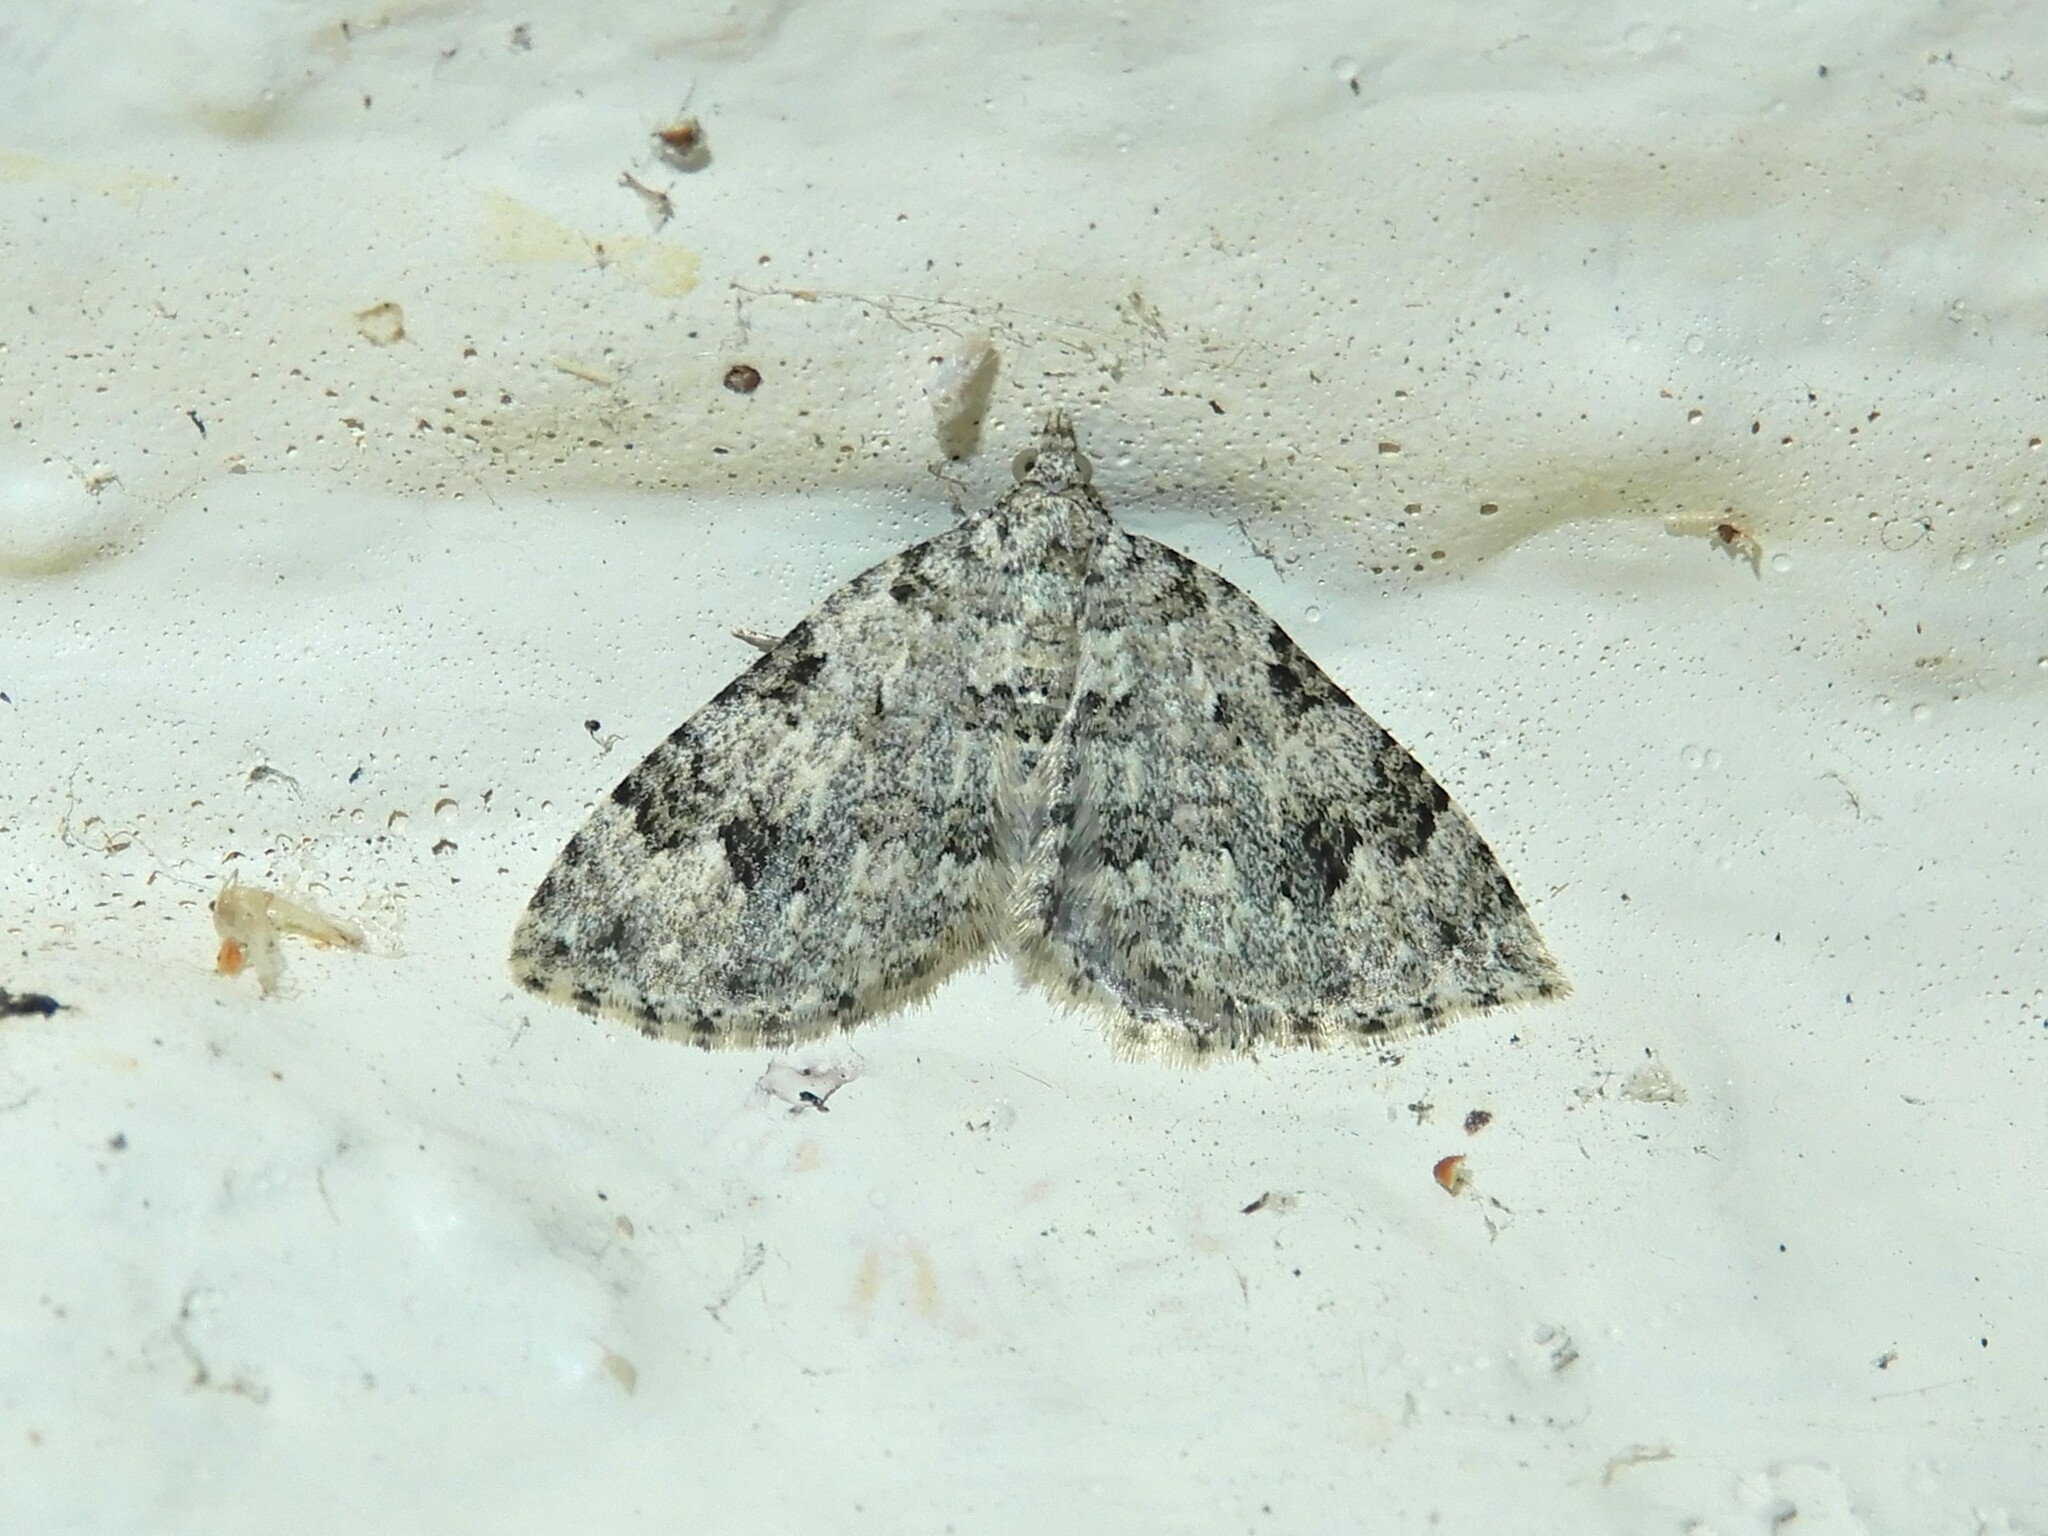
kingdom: Animalia
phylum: Arthropoda
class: Insecta
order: Lepidoptera
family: Geometridae
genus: Helastia
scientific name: Helastia cinerearia
